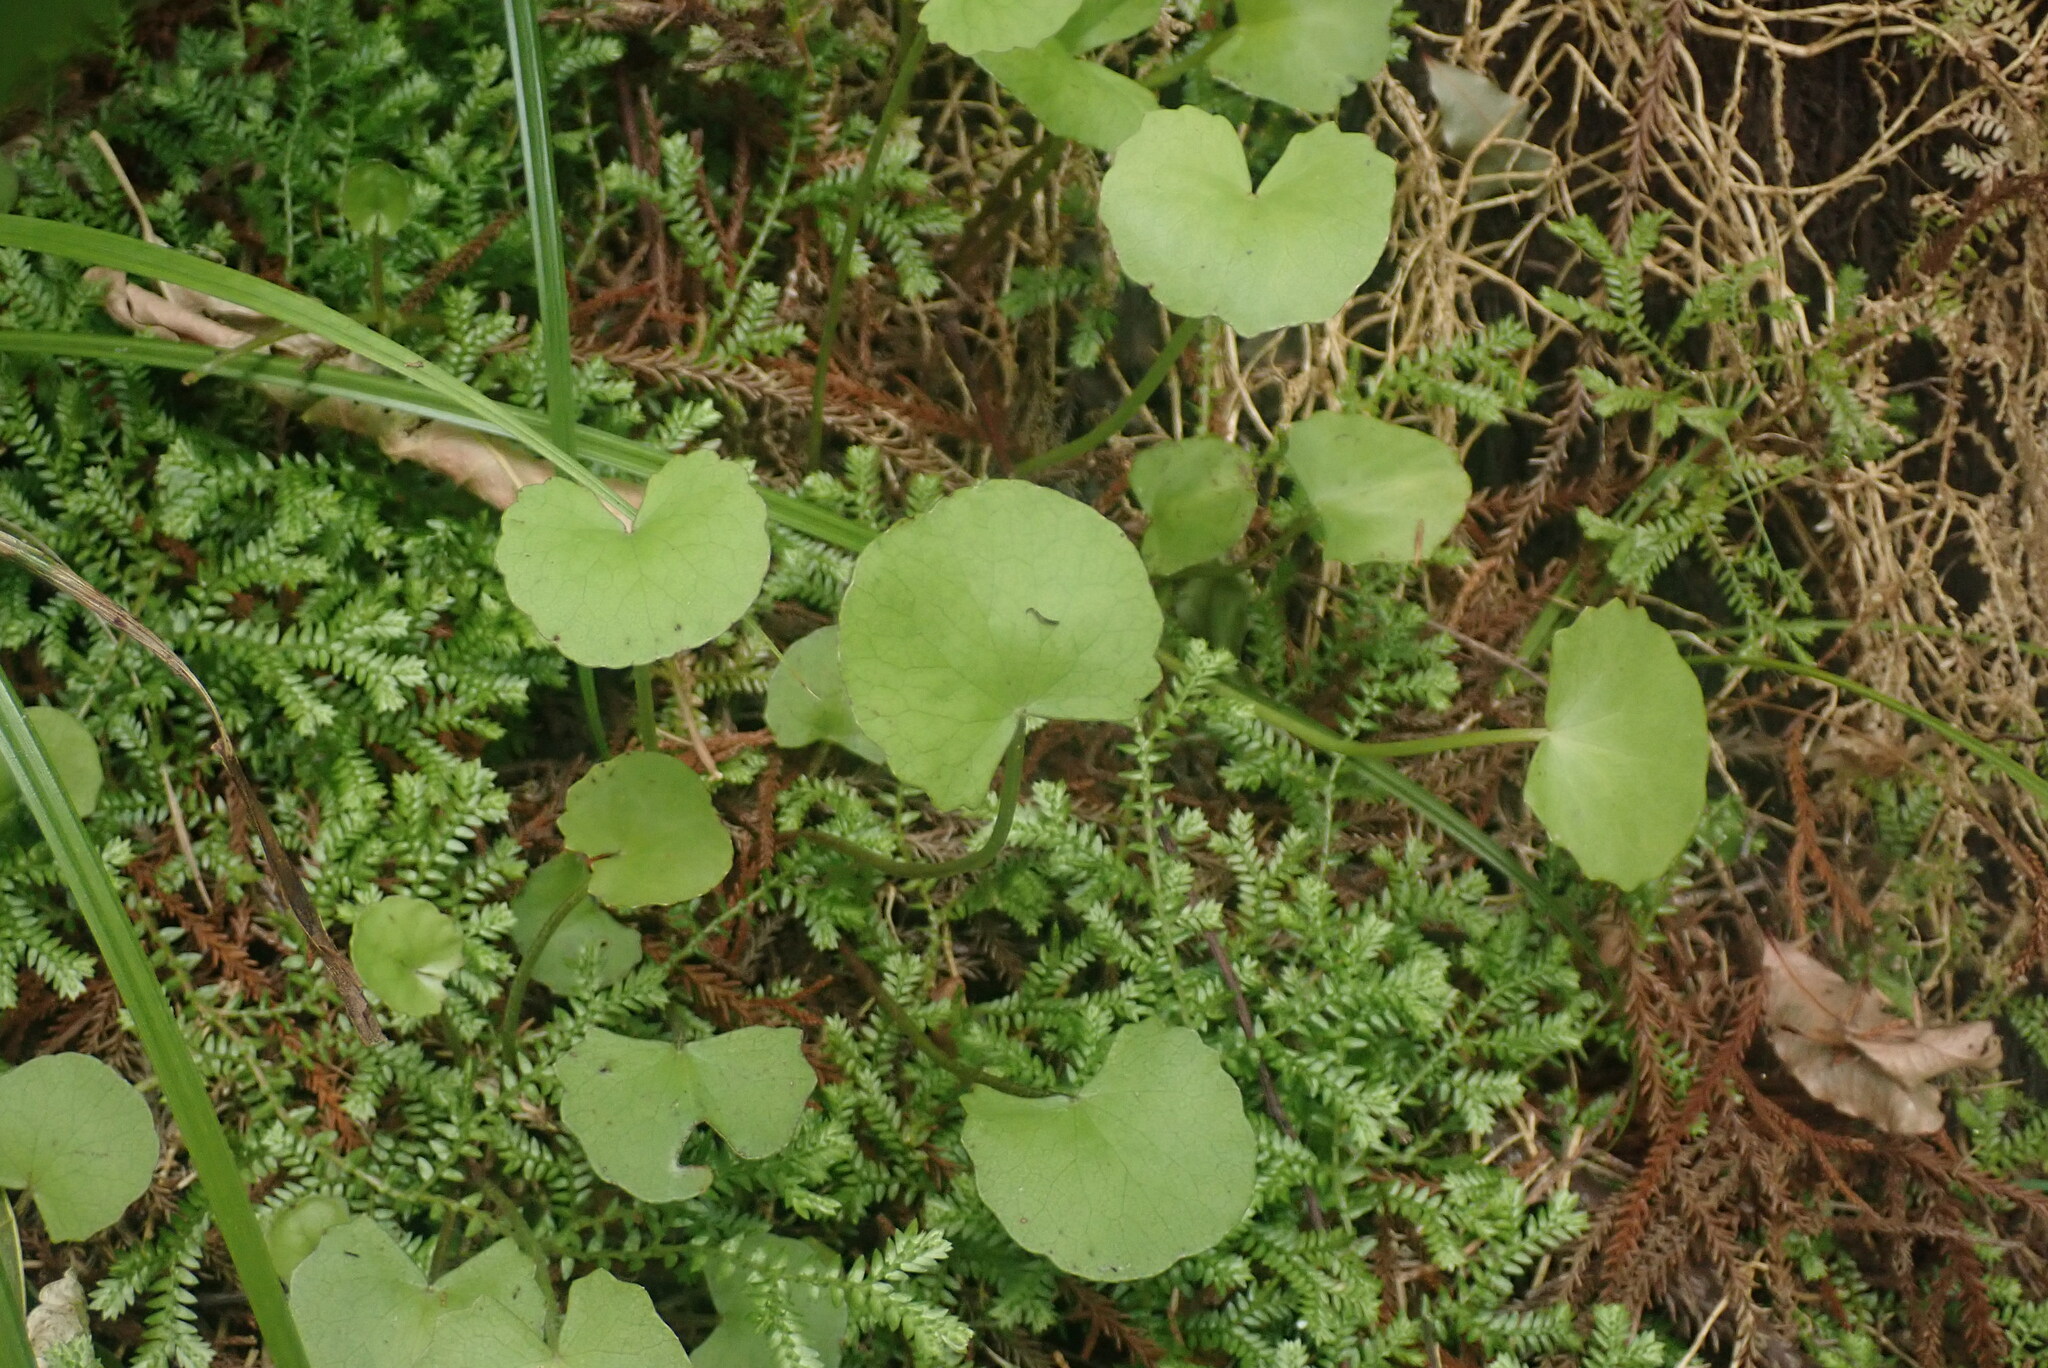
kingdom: Plantae
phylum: Tracheophyta
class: Magnoliopsida
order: Apiales
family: Apiaceae
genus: Centella
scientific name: Centella uniflora
